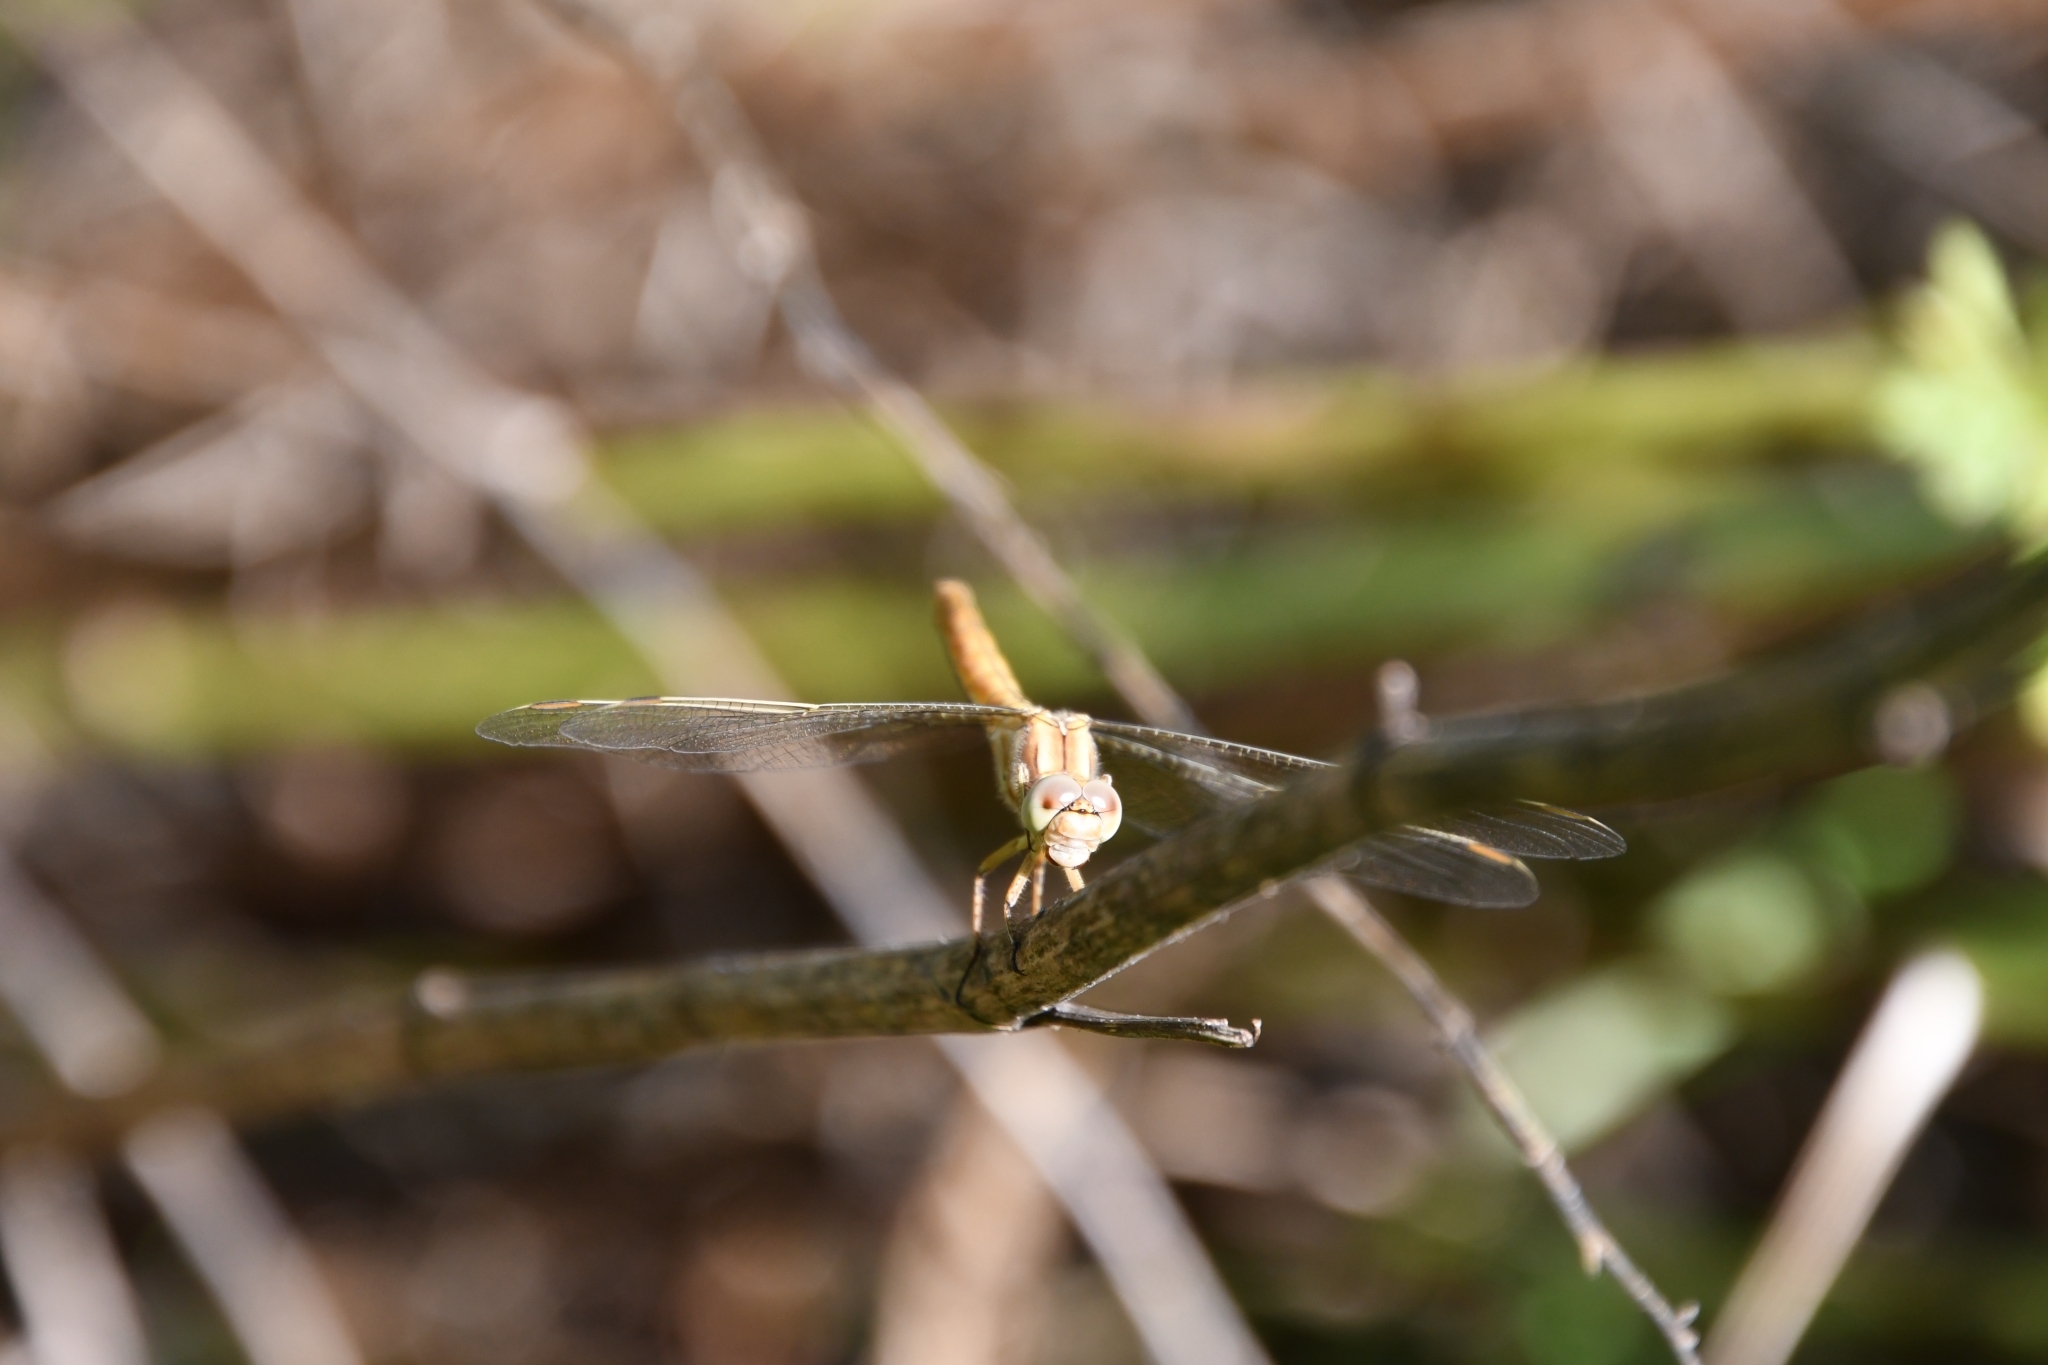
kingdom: Animalia
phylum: Arthropoda
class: Insecta
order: Odonata
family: Libellulidae
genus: Orthetrum
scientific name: Orthetrum brunneum
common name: Southern skimmer
